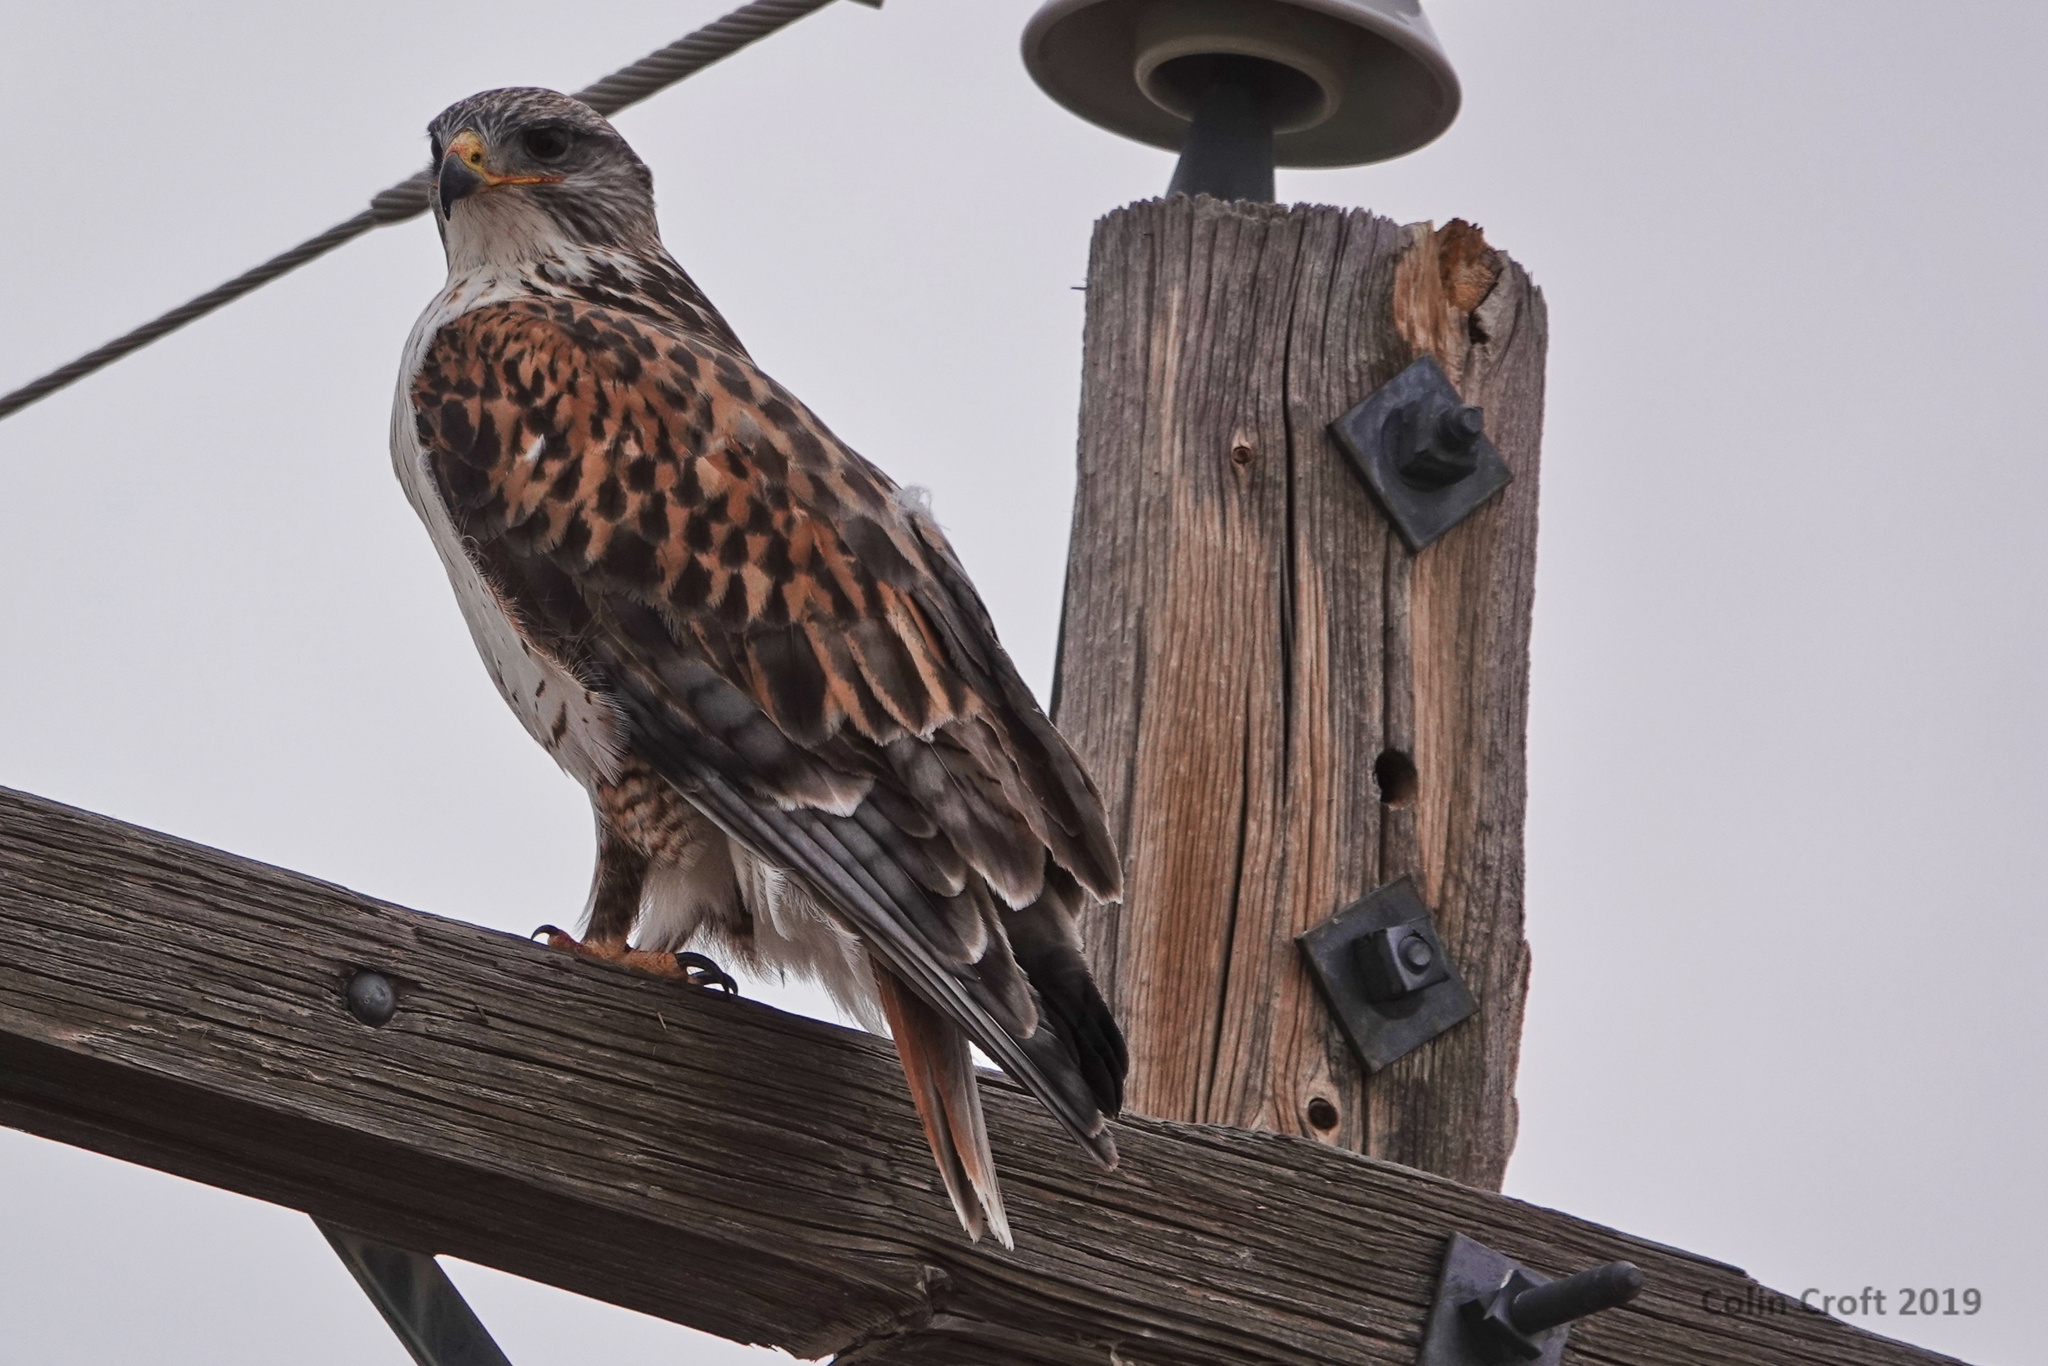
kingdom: Animalia
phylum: Chordata
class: Aves
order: Accipitriformes
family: Accipitridae
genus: Buteo
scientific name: Buteo regalis
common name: Ferruginous hawk
